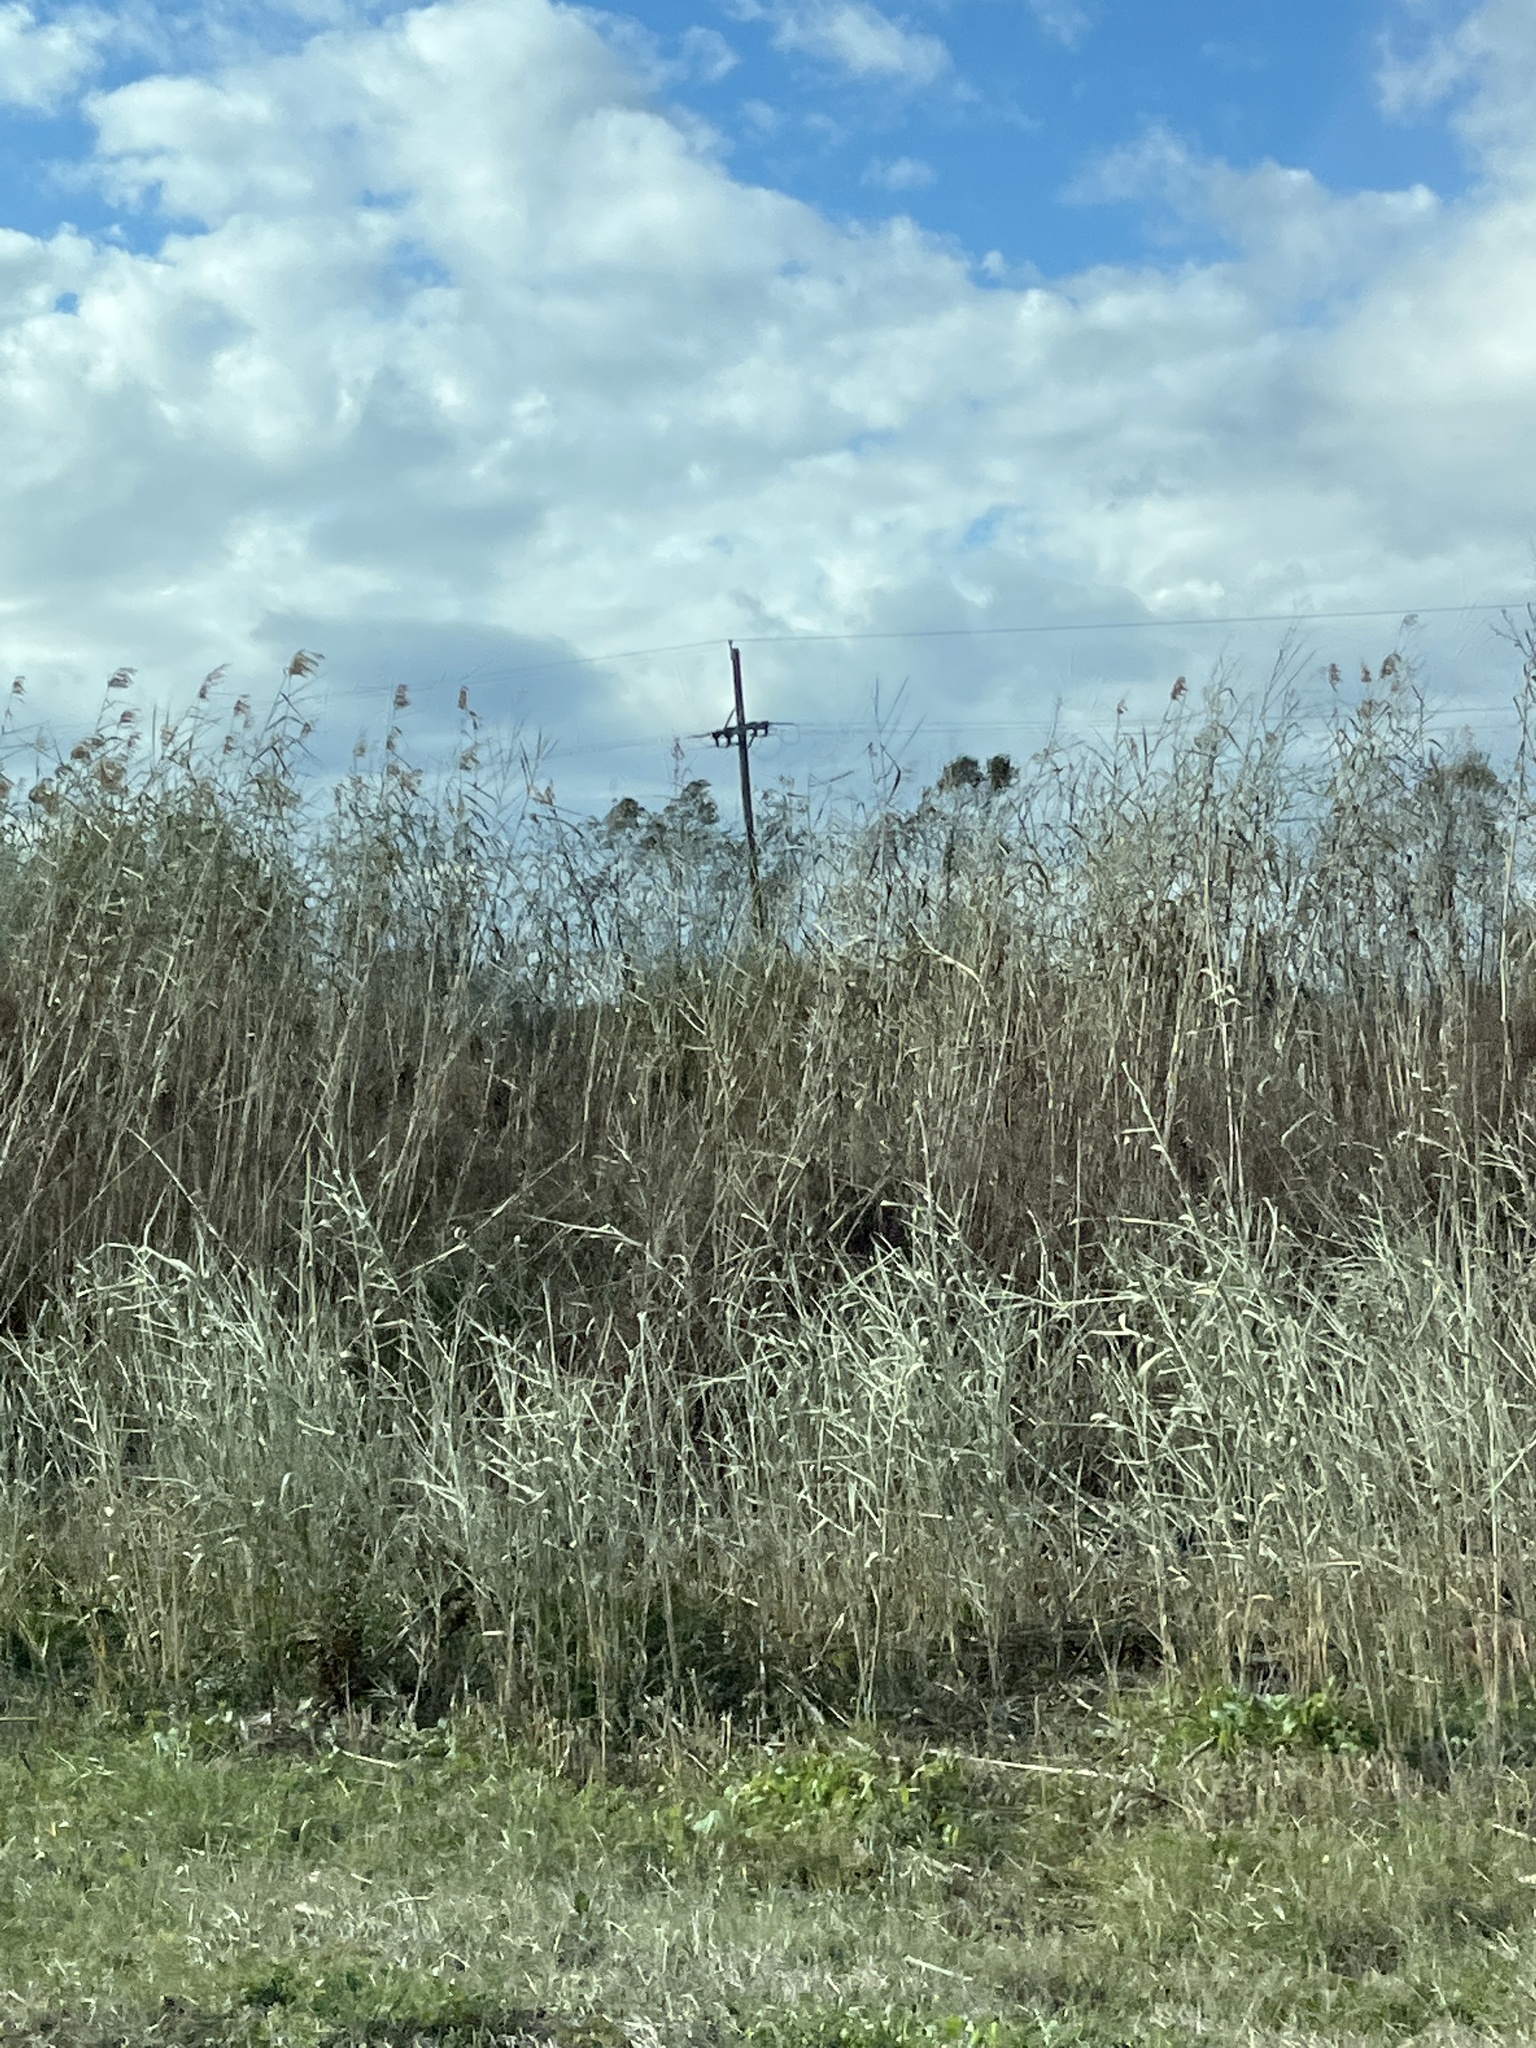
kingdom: Plantae
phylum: Tracheophyta
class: Liliopsida
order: Poales
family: Poaceae
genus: Phragmites
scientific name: Phragmites australis
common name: Common reed
